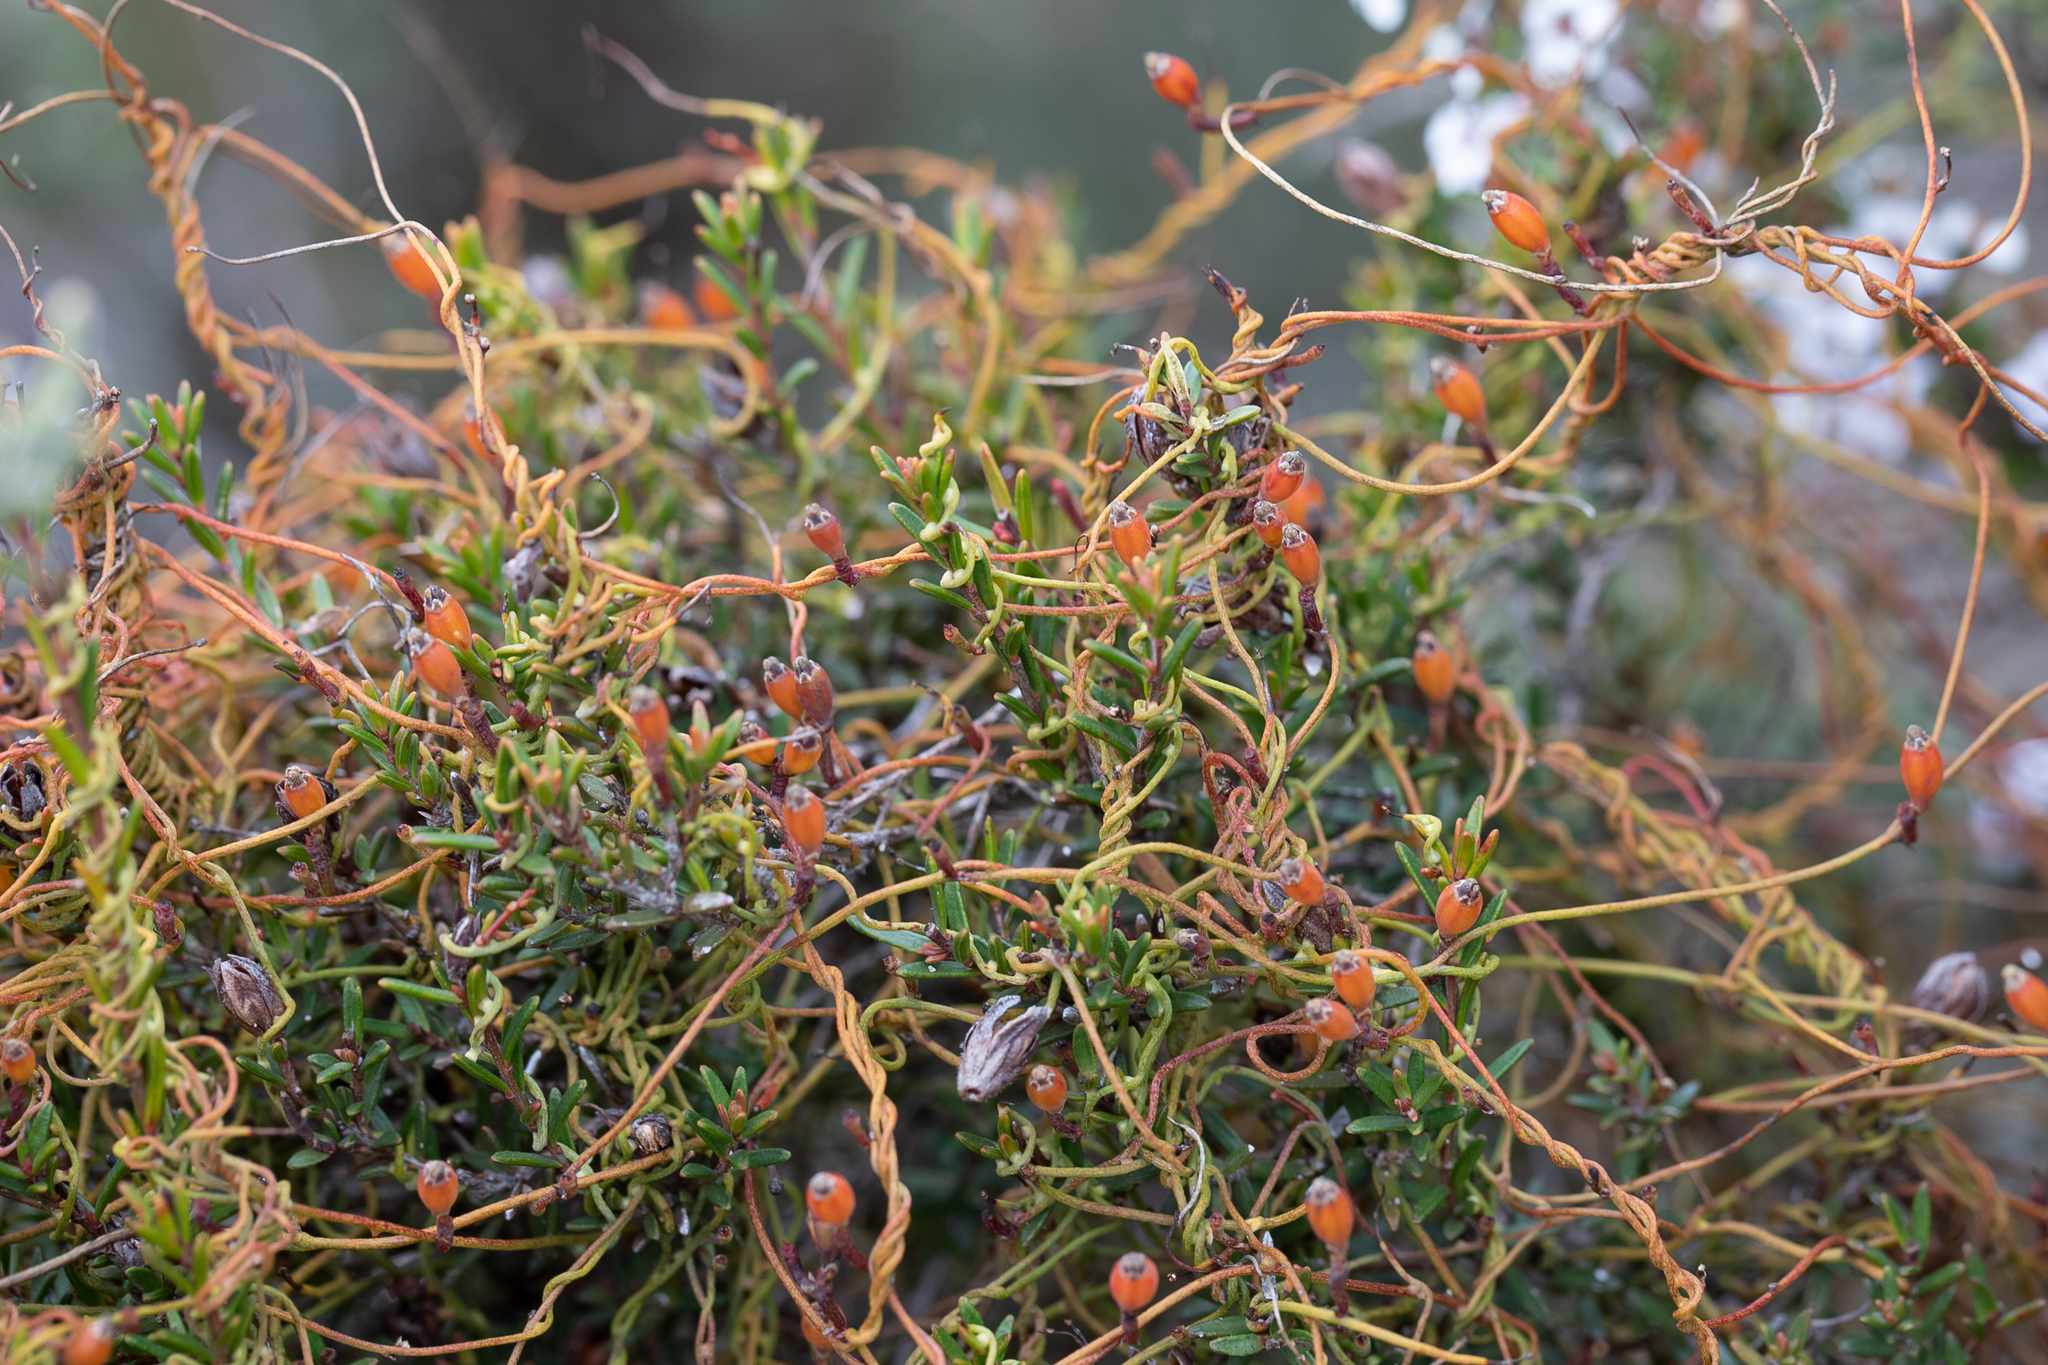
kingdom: Plantae
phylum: Tracheophyta
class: Magnoliopsida
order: Laurales
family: Lauraceae
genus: Cassytha
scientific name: Cassytha glabella
